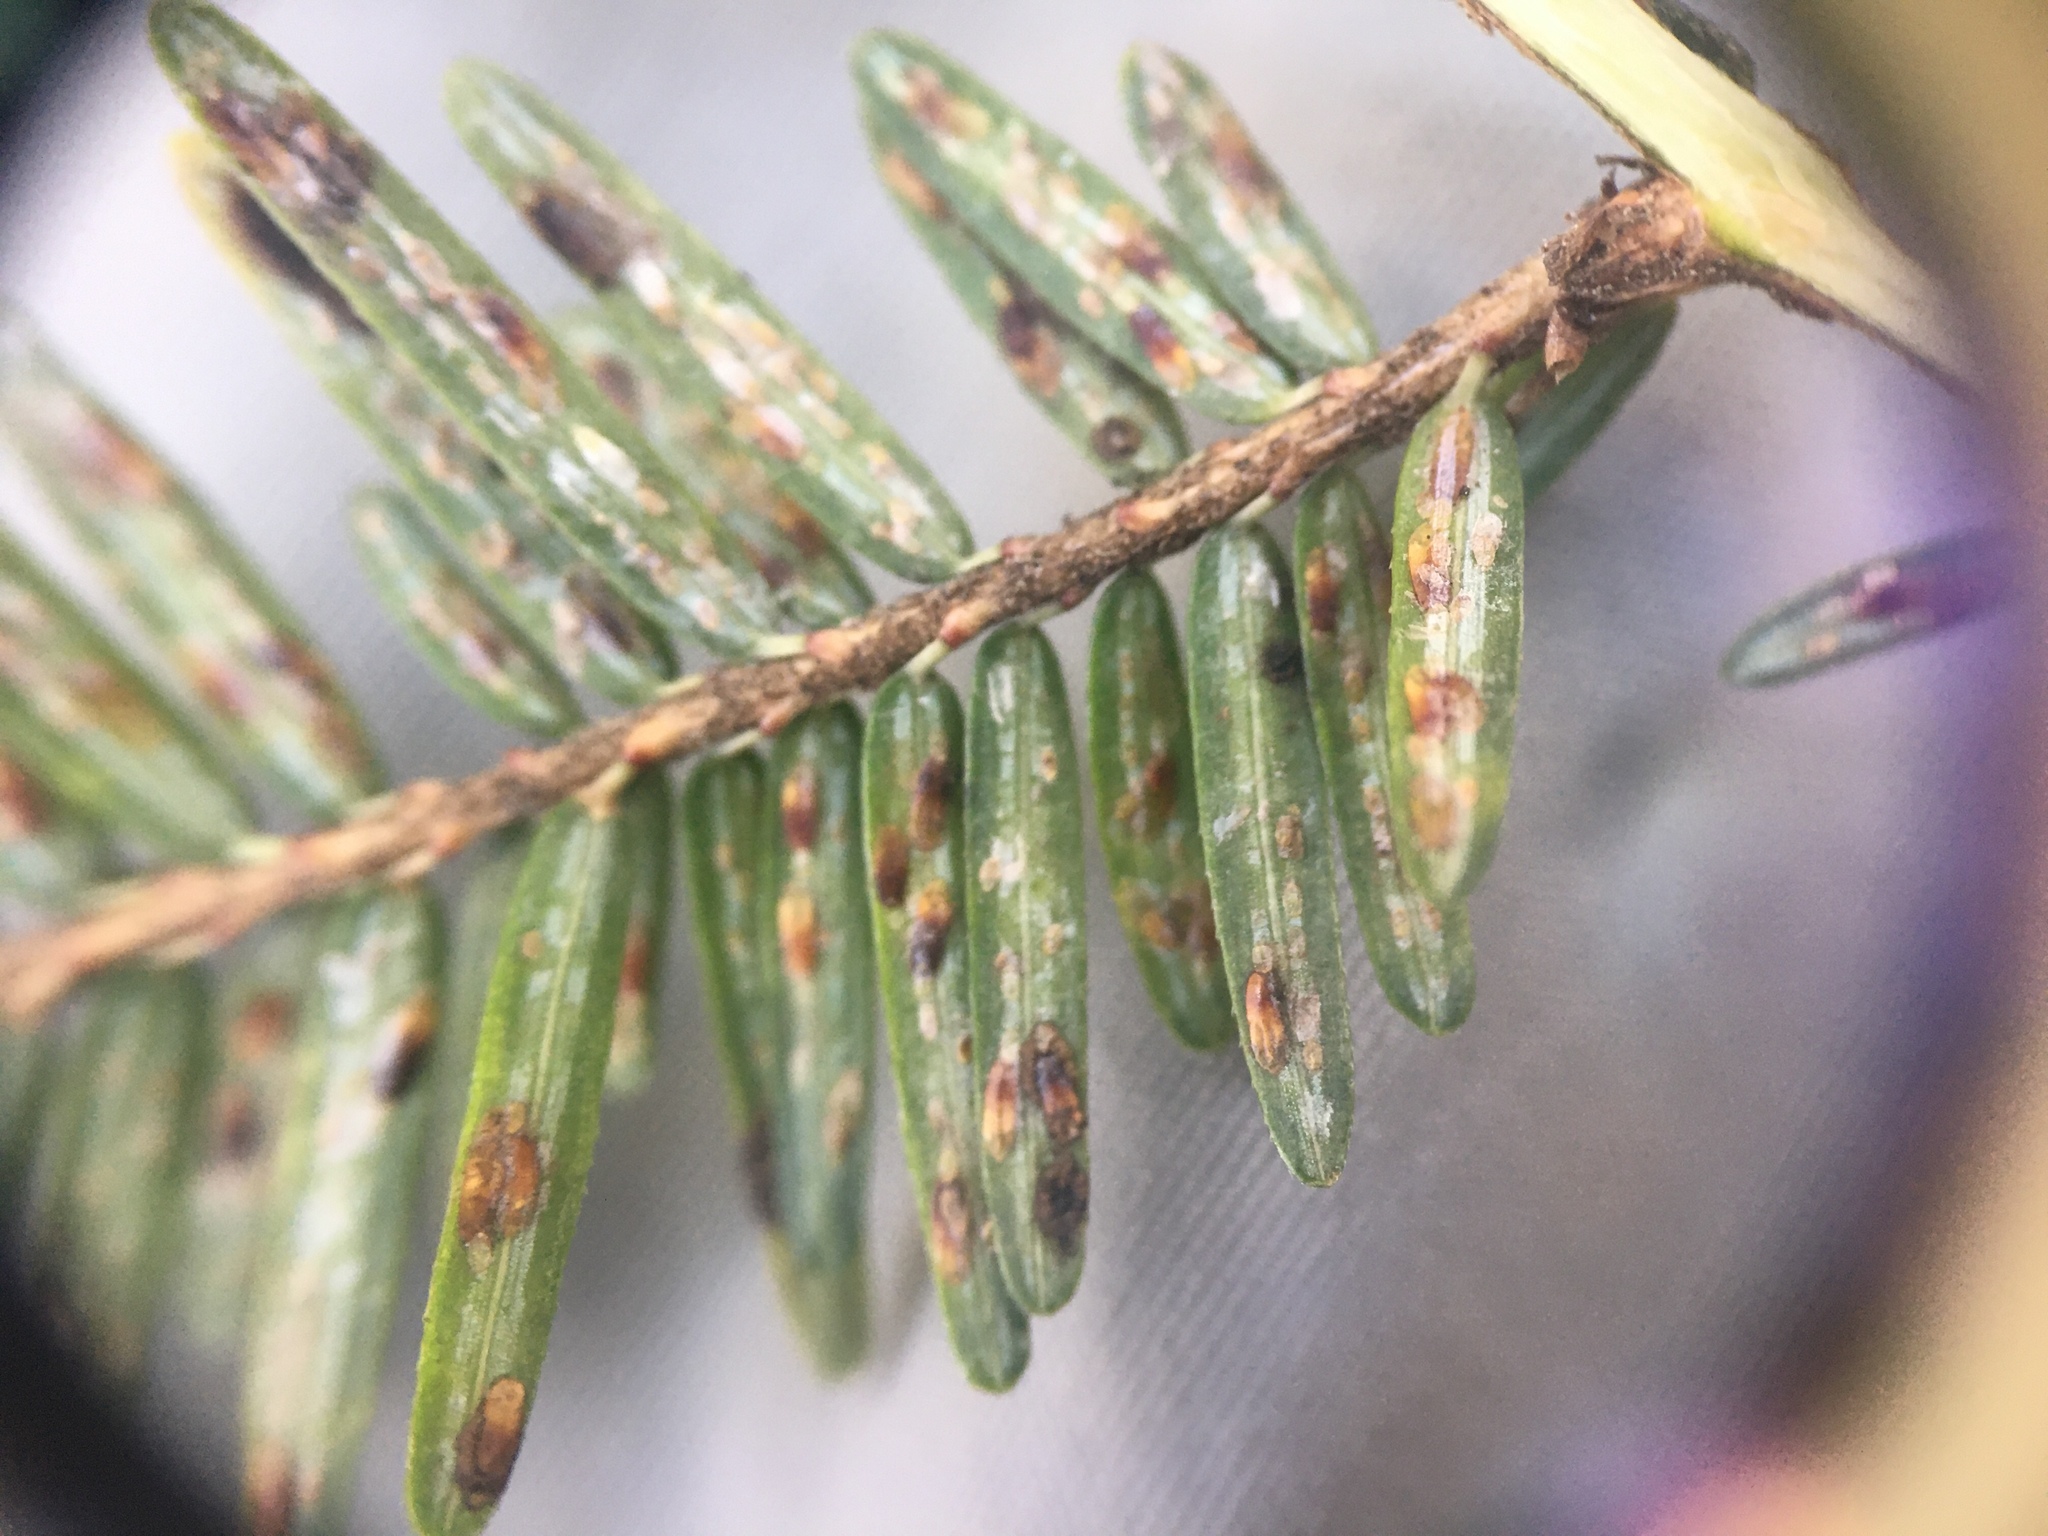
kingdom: Animalia
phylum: Arthropoda
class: Insecta
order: Hemiptera
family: Diaspididae
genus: Fiorinia
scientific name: Fiorinia externa
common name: Elongate hemlock scale
